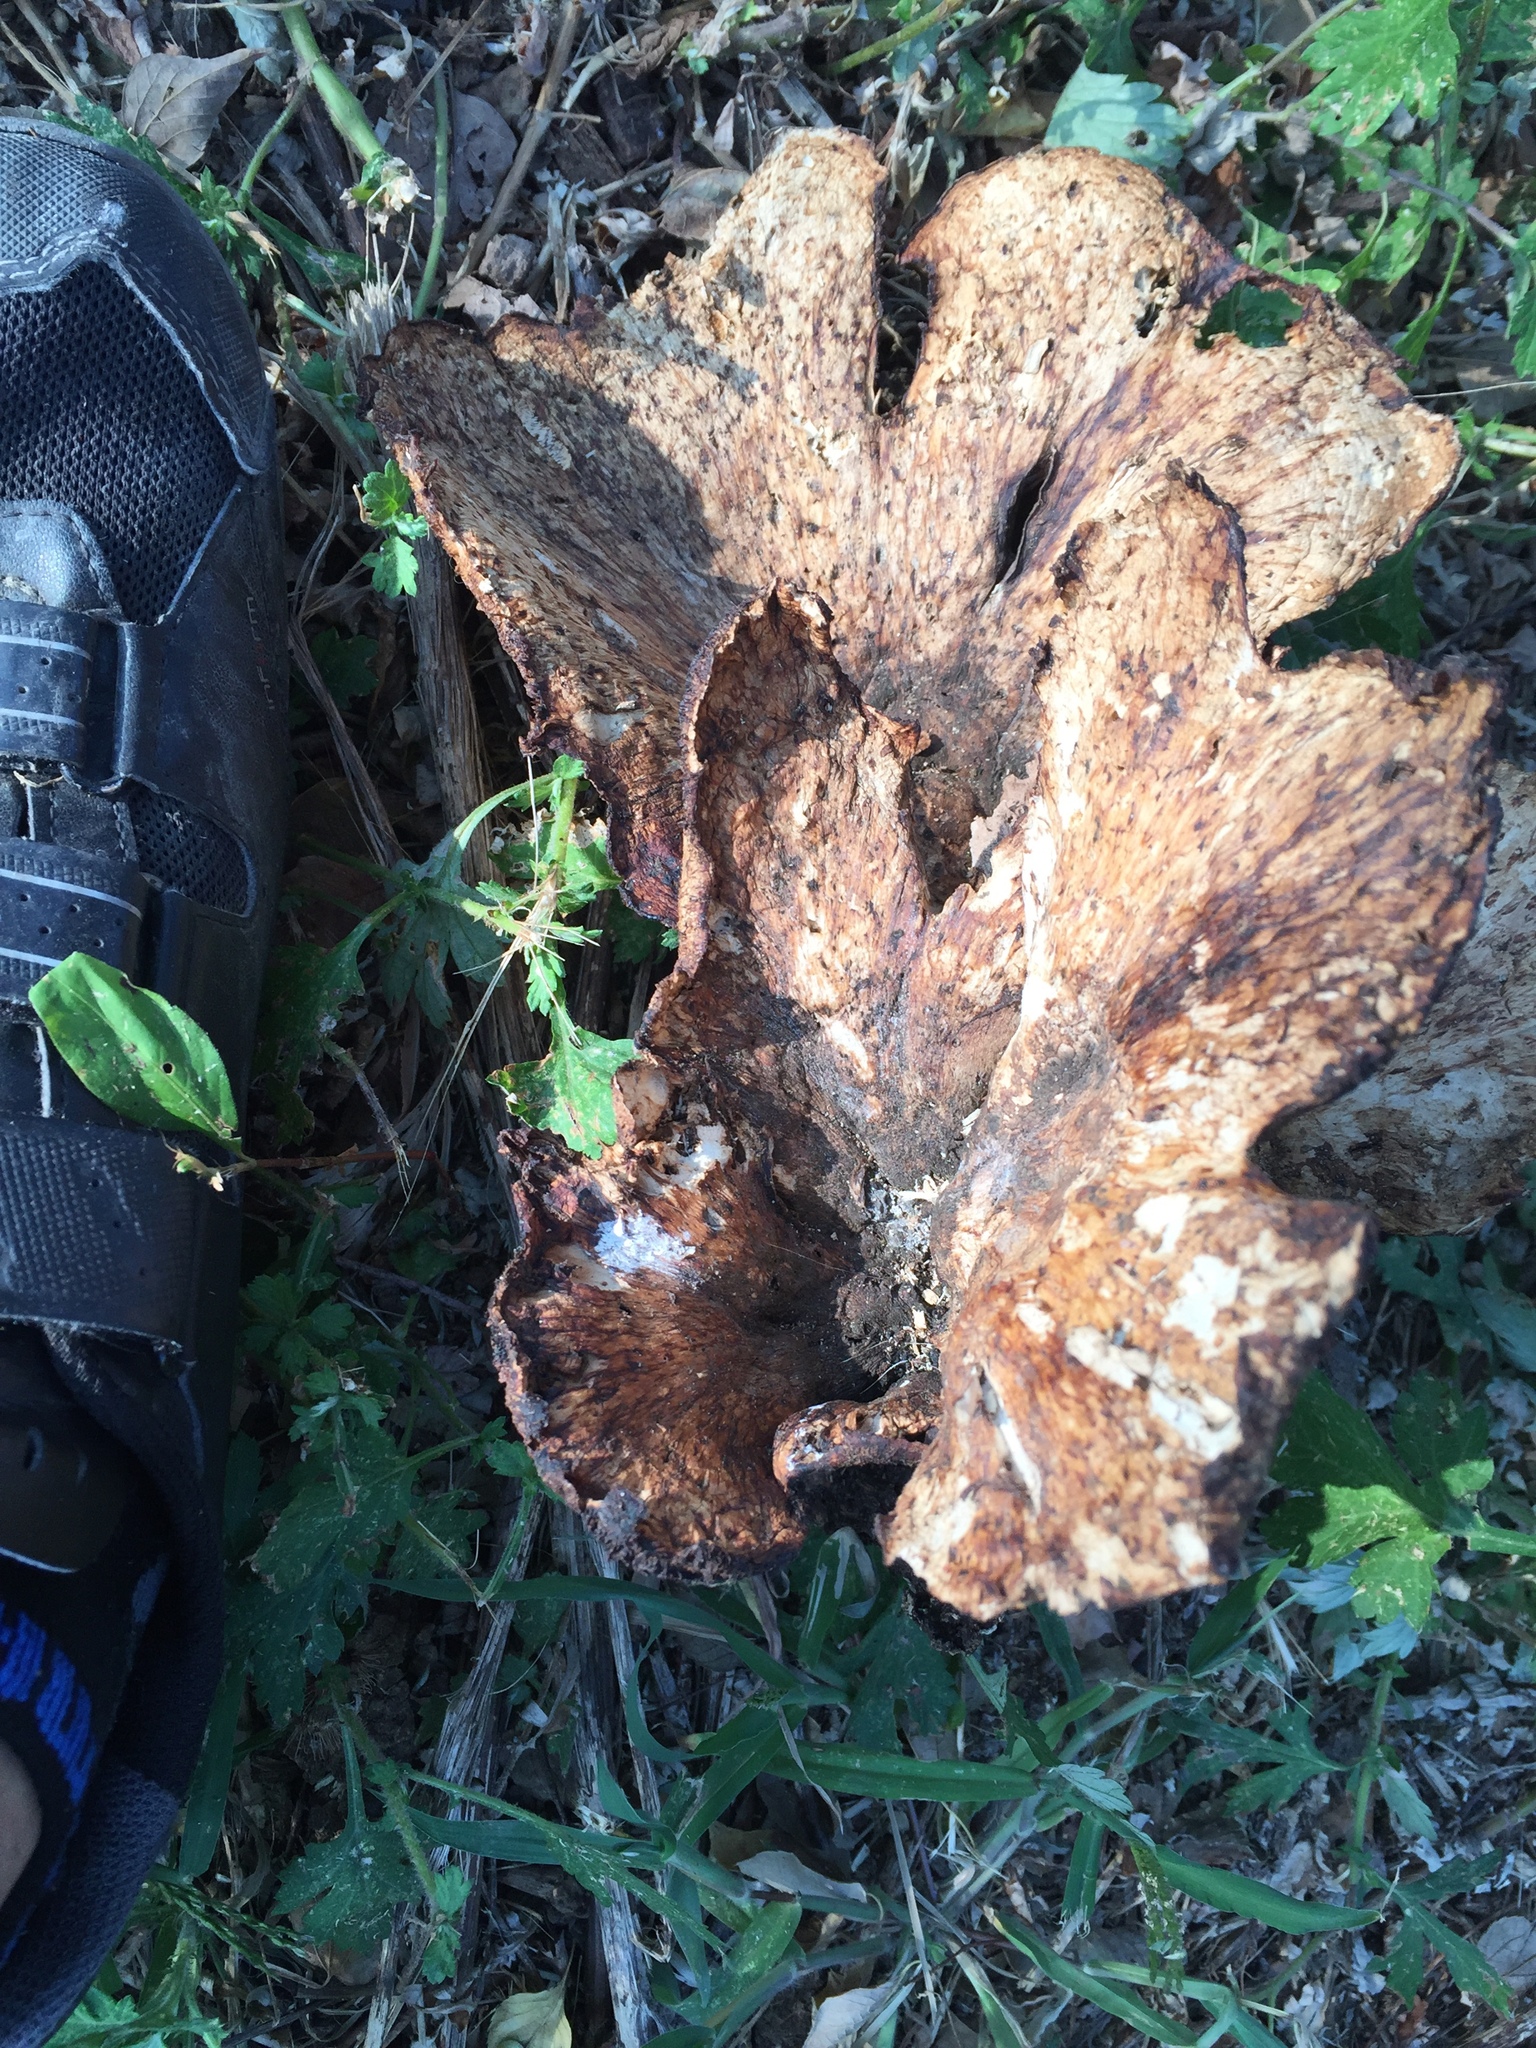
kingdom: Fungi
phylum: Basidiomycota
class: Agaricomycetes
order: Polyporales
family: Polyporaceae
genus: Cerioporus
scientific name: Cerioporus squamosus
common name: Dryad's saddle
